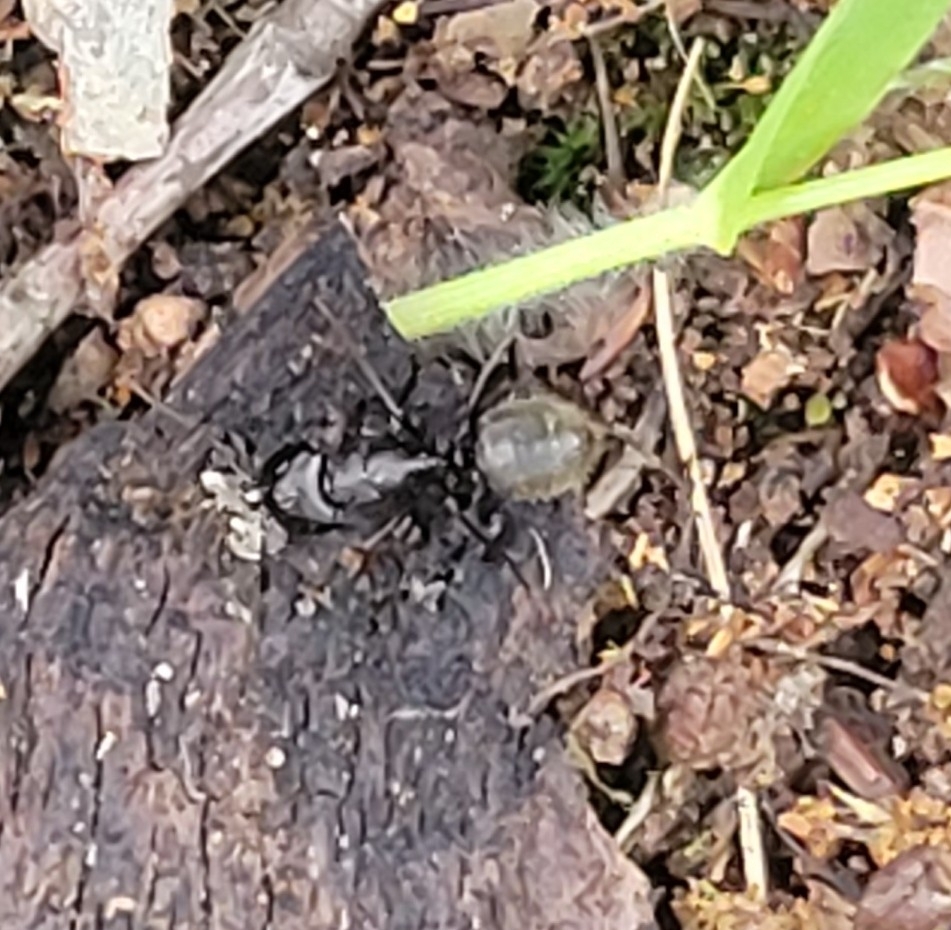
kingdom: Animalia
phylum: Arthropoda
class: Insecta
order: Hymenoptera
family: Formicidae
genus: Camponotus
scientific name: Camponotus pennsylvanicus
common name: Black carpenter ant
